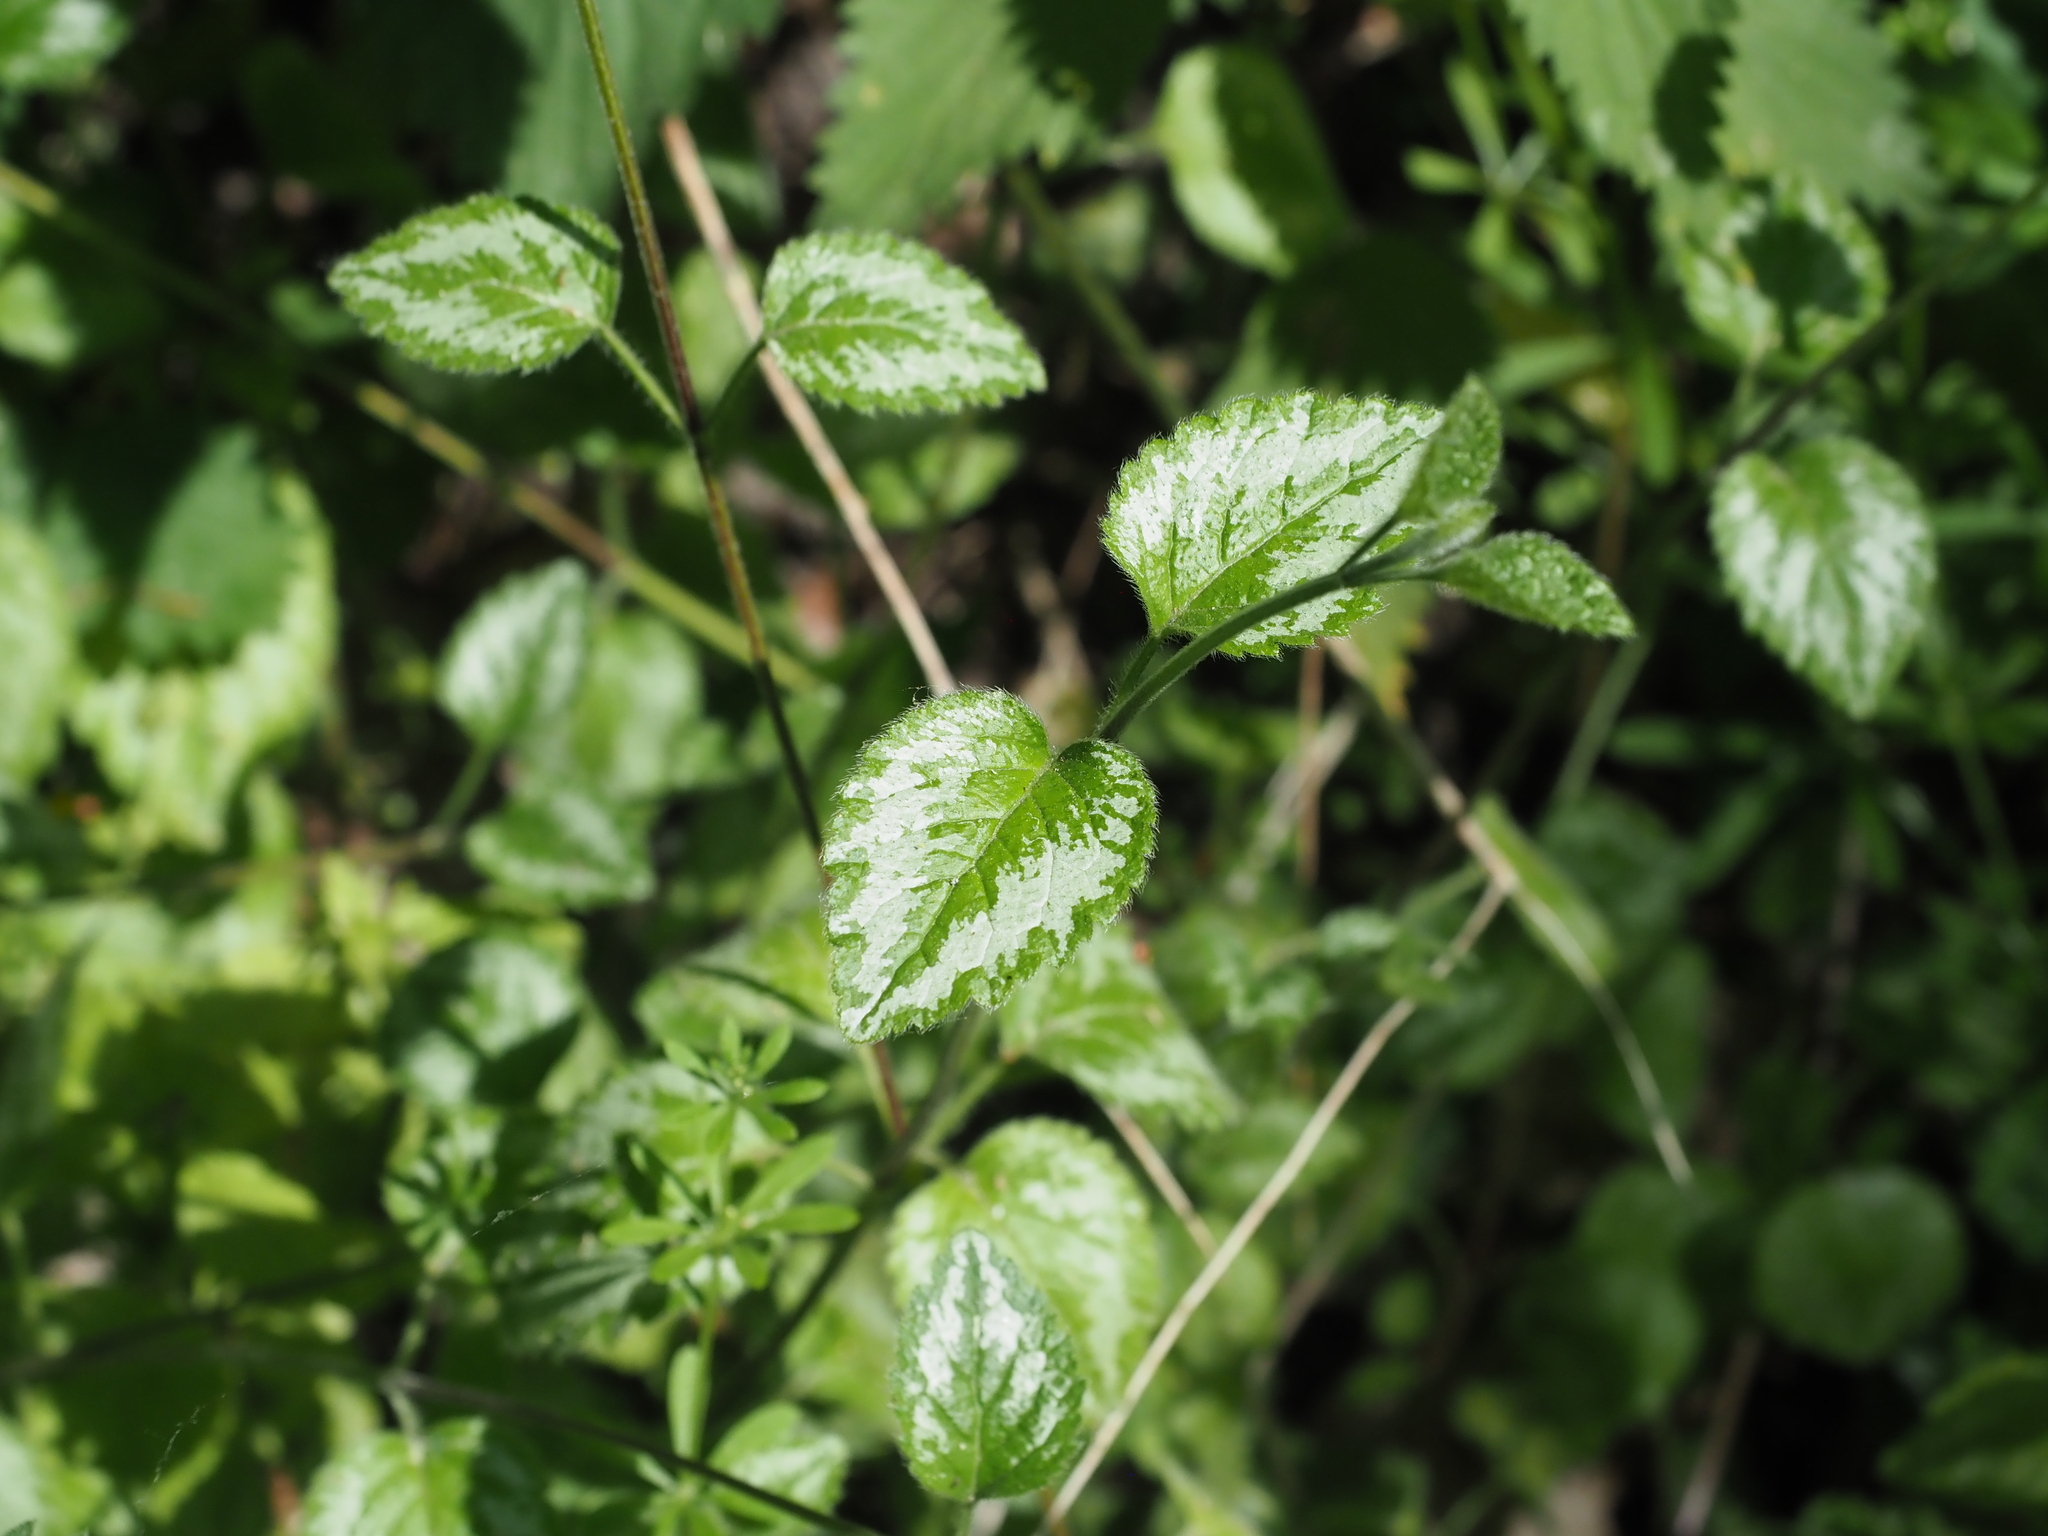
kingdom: Plantae
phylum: Tracheophyta
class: Magnoliopsida
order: Lamiales
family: Lamiaceae
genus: Lamium
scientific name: Lamium galeobdolon
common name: Yellow archangel
